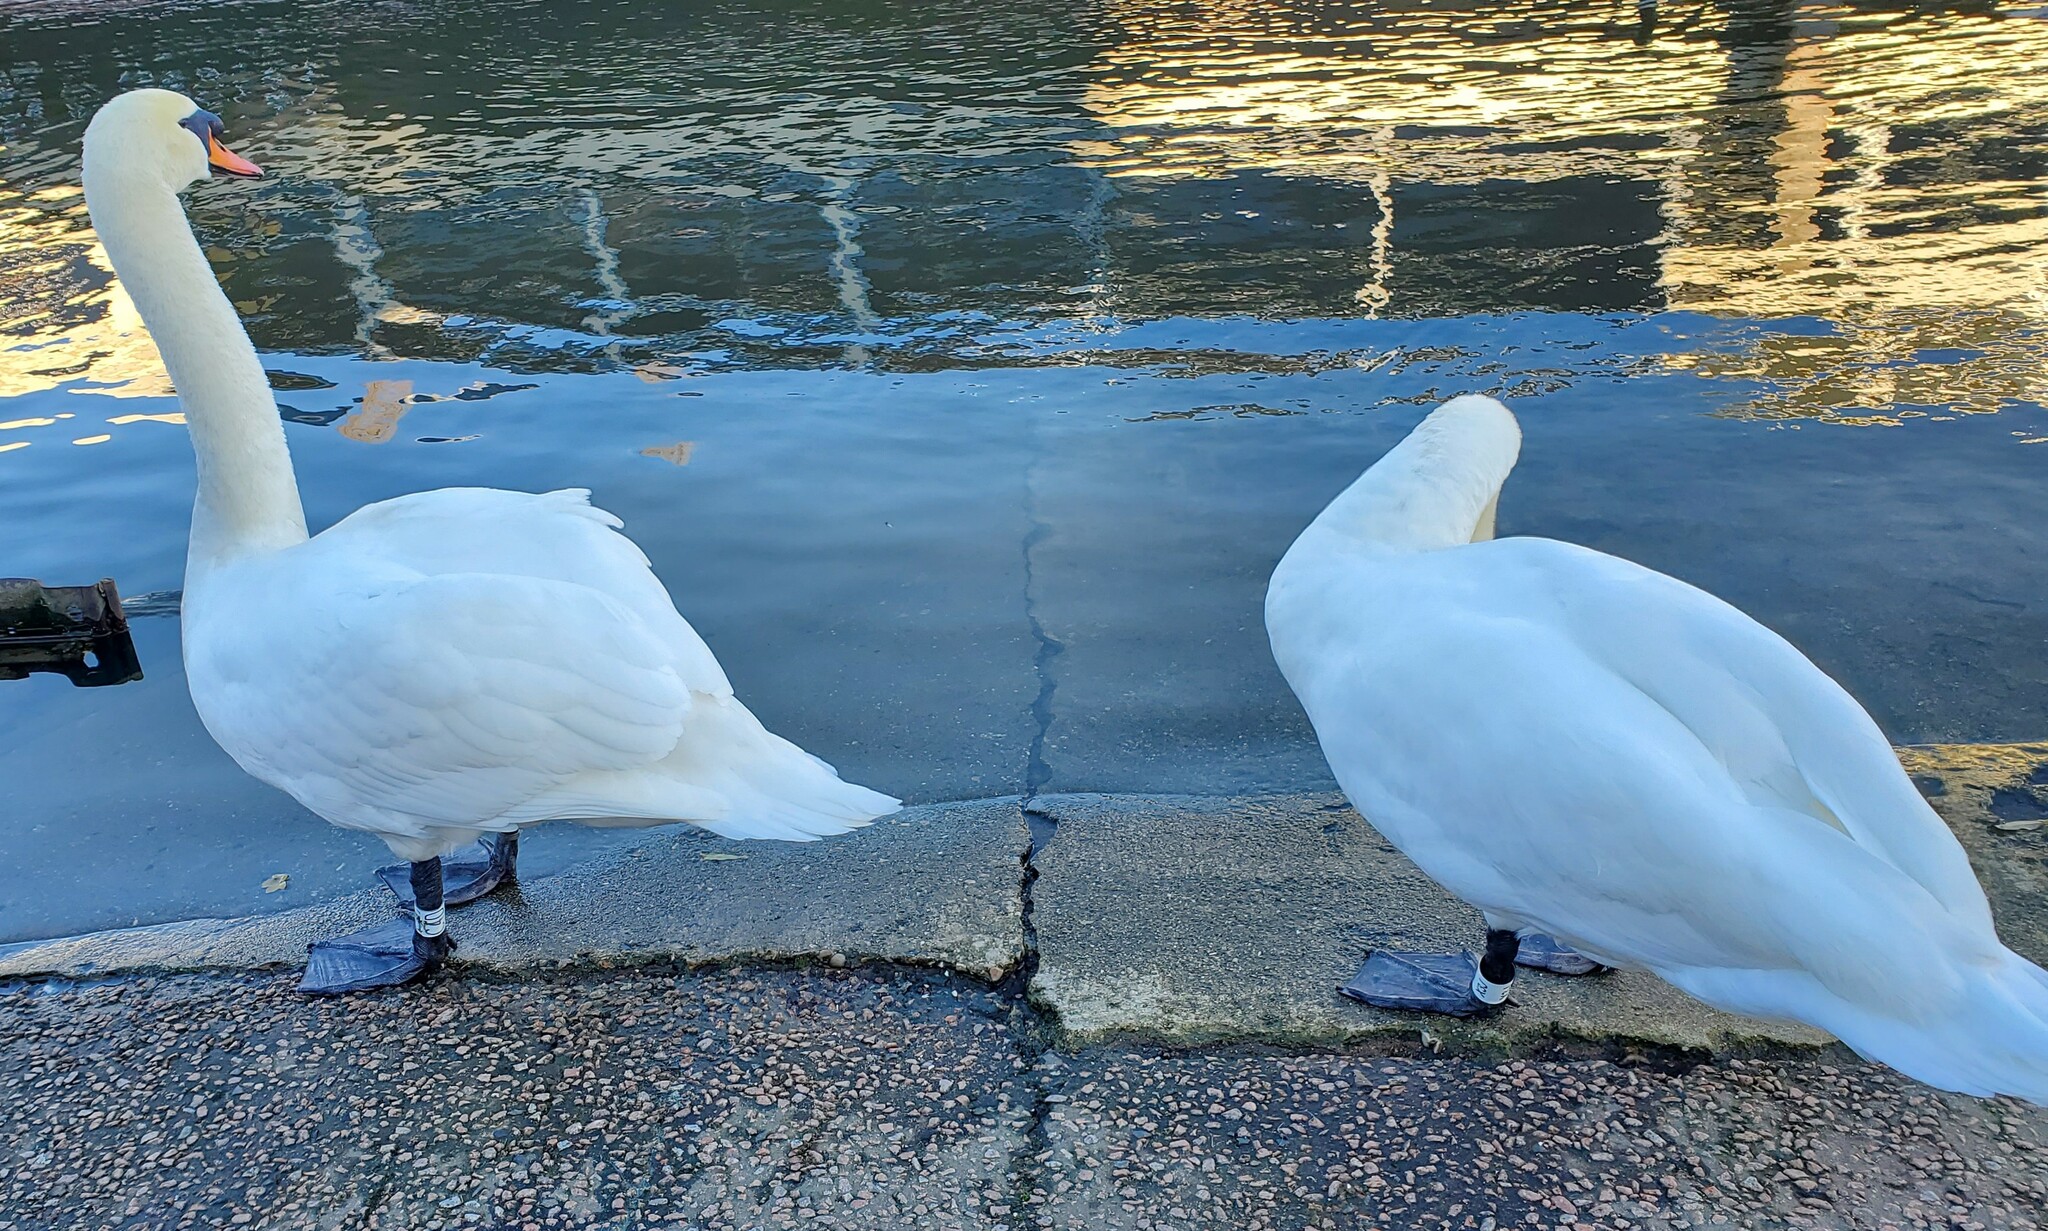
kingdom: Animalia
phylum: Chordata
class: Aves
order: Anseriformes
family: Anatidae
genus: Cygnus
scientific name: Cygnus olor
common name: Mute swan
